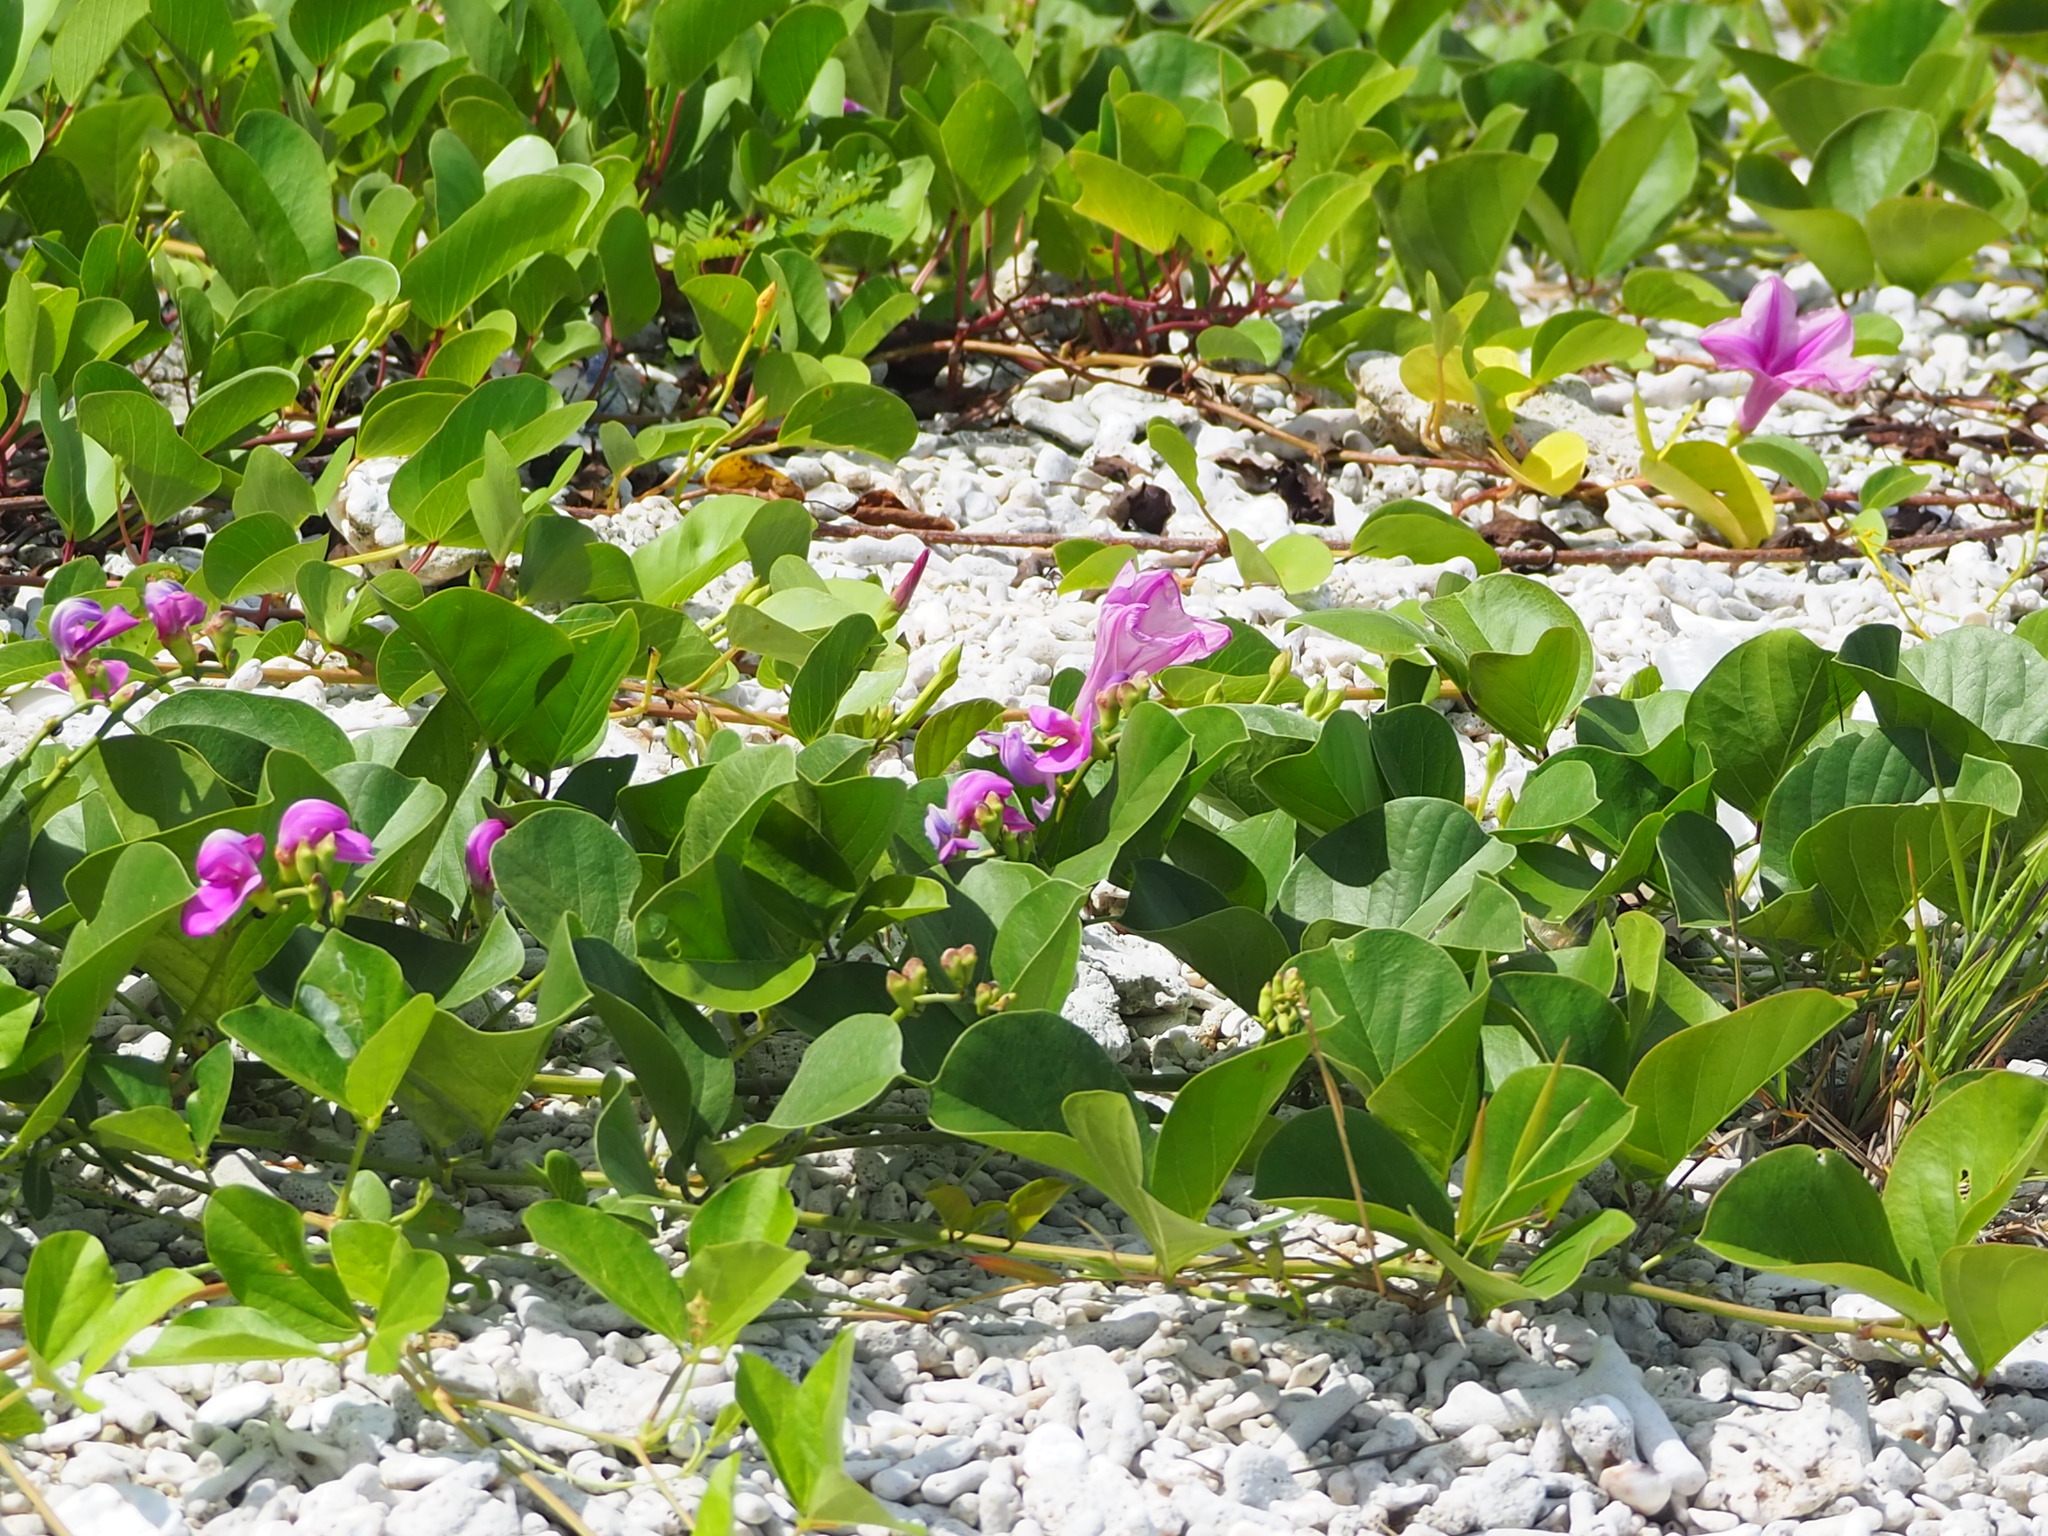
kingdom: Plantae
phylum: Tracheophyta
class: Magnoliopsida
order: Fabales
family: Fabaceae
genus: Canavalia
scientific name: Canavalia rosea
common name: Beach-bean
